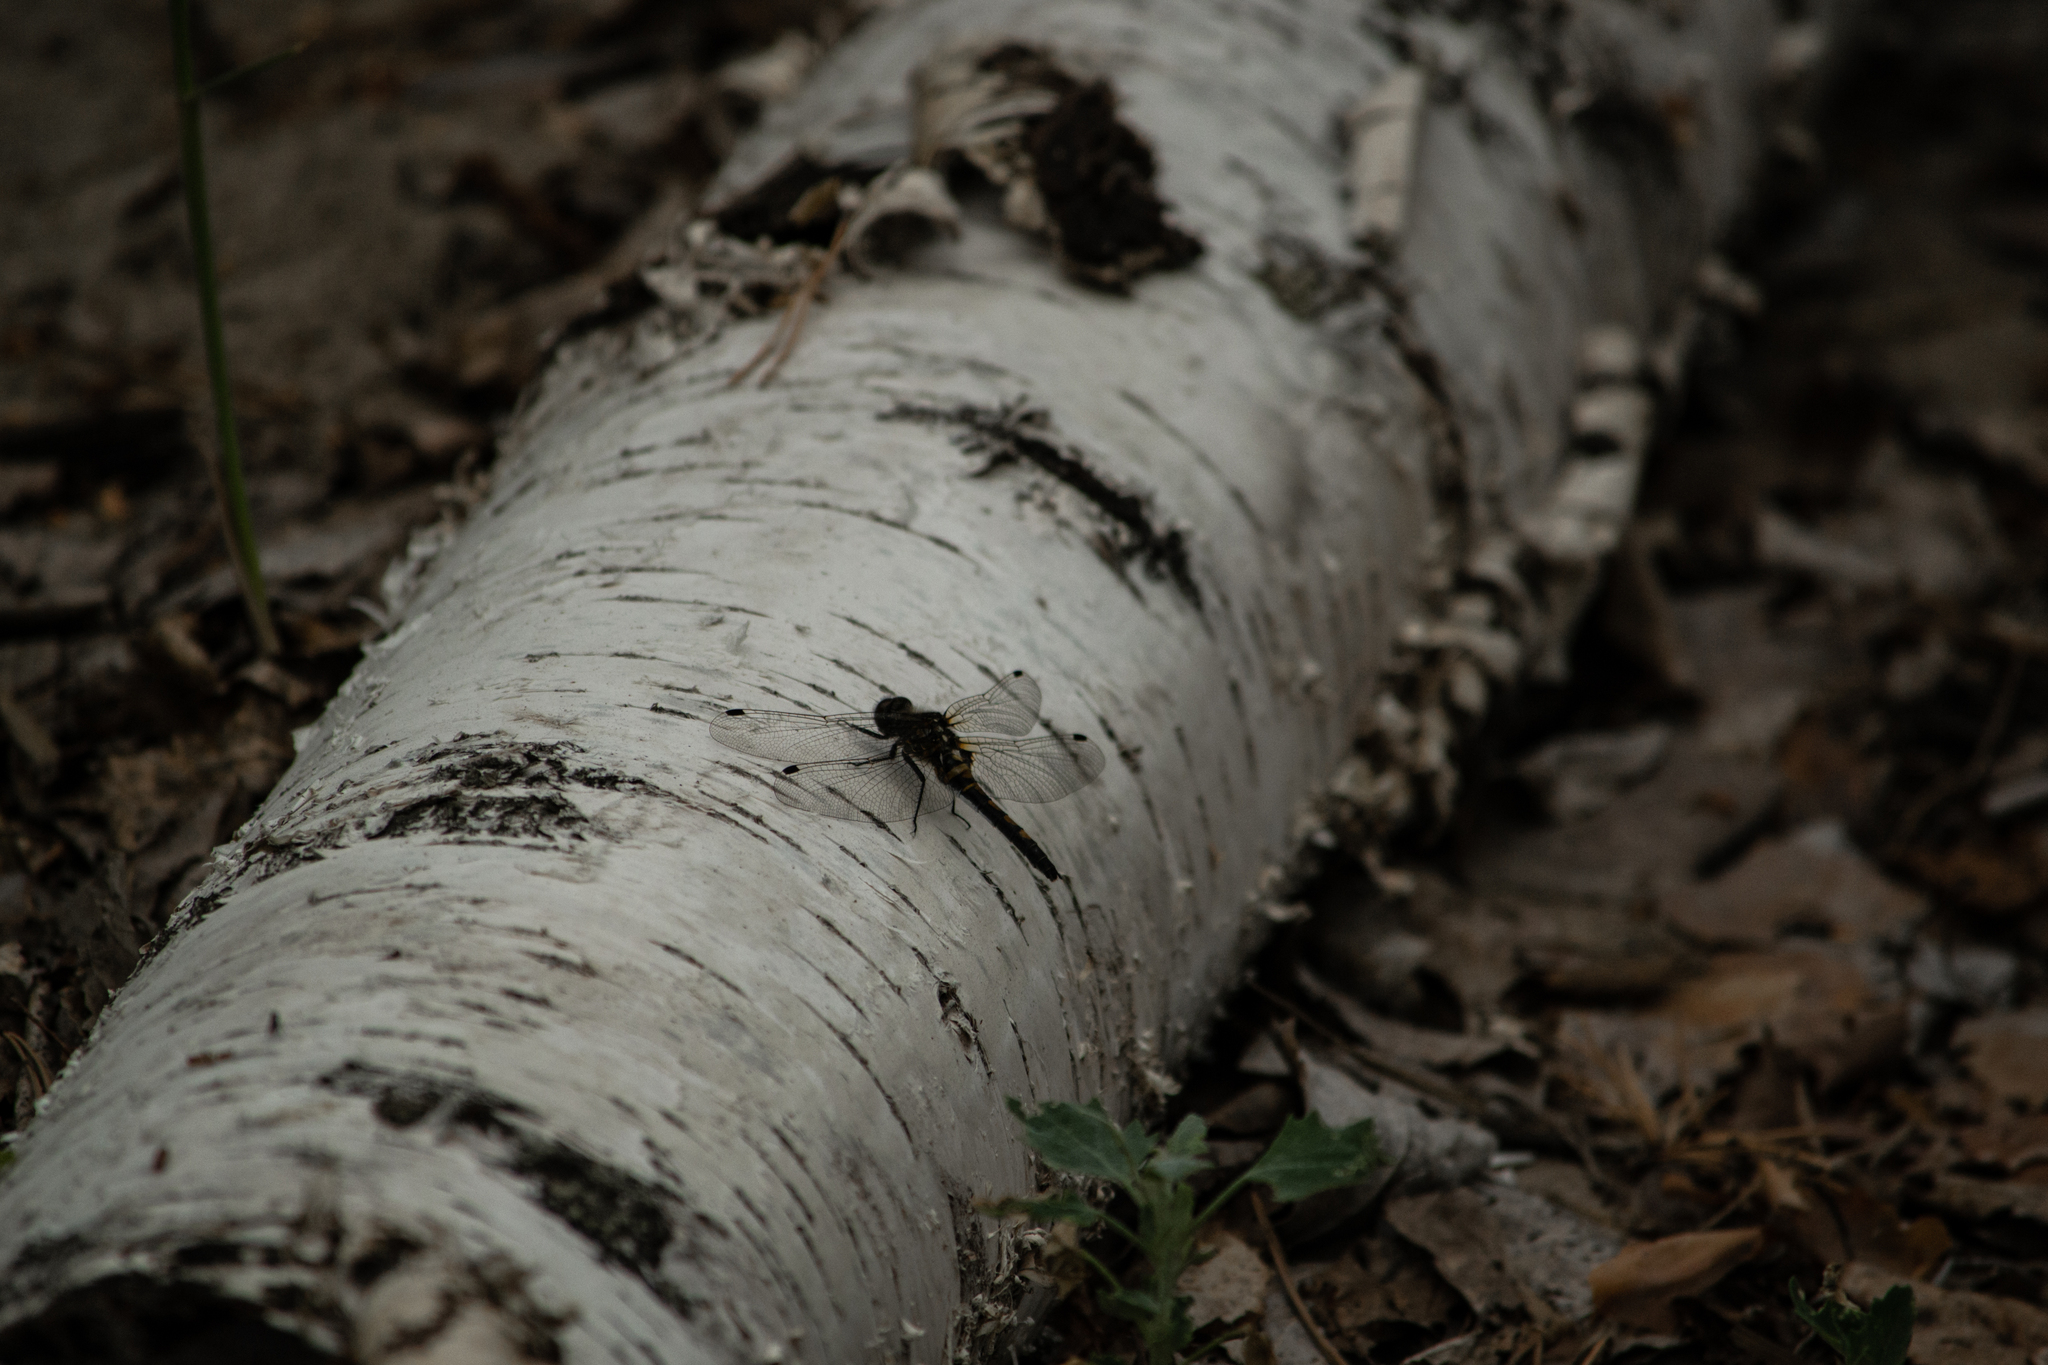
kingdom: Animalia
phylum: Arthropoda
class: Insecta
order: Odonata
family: Libellulidae
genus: Leucorrhinia
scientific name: Leucorrhinia rubicunda
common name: Ruby whiteface
